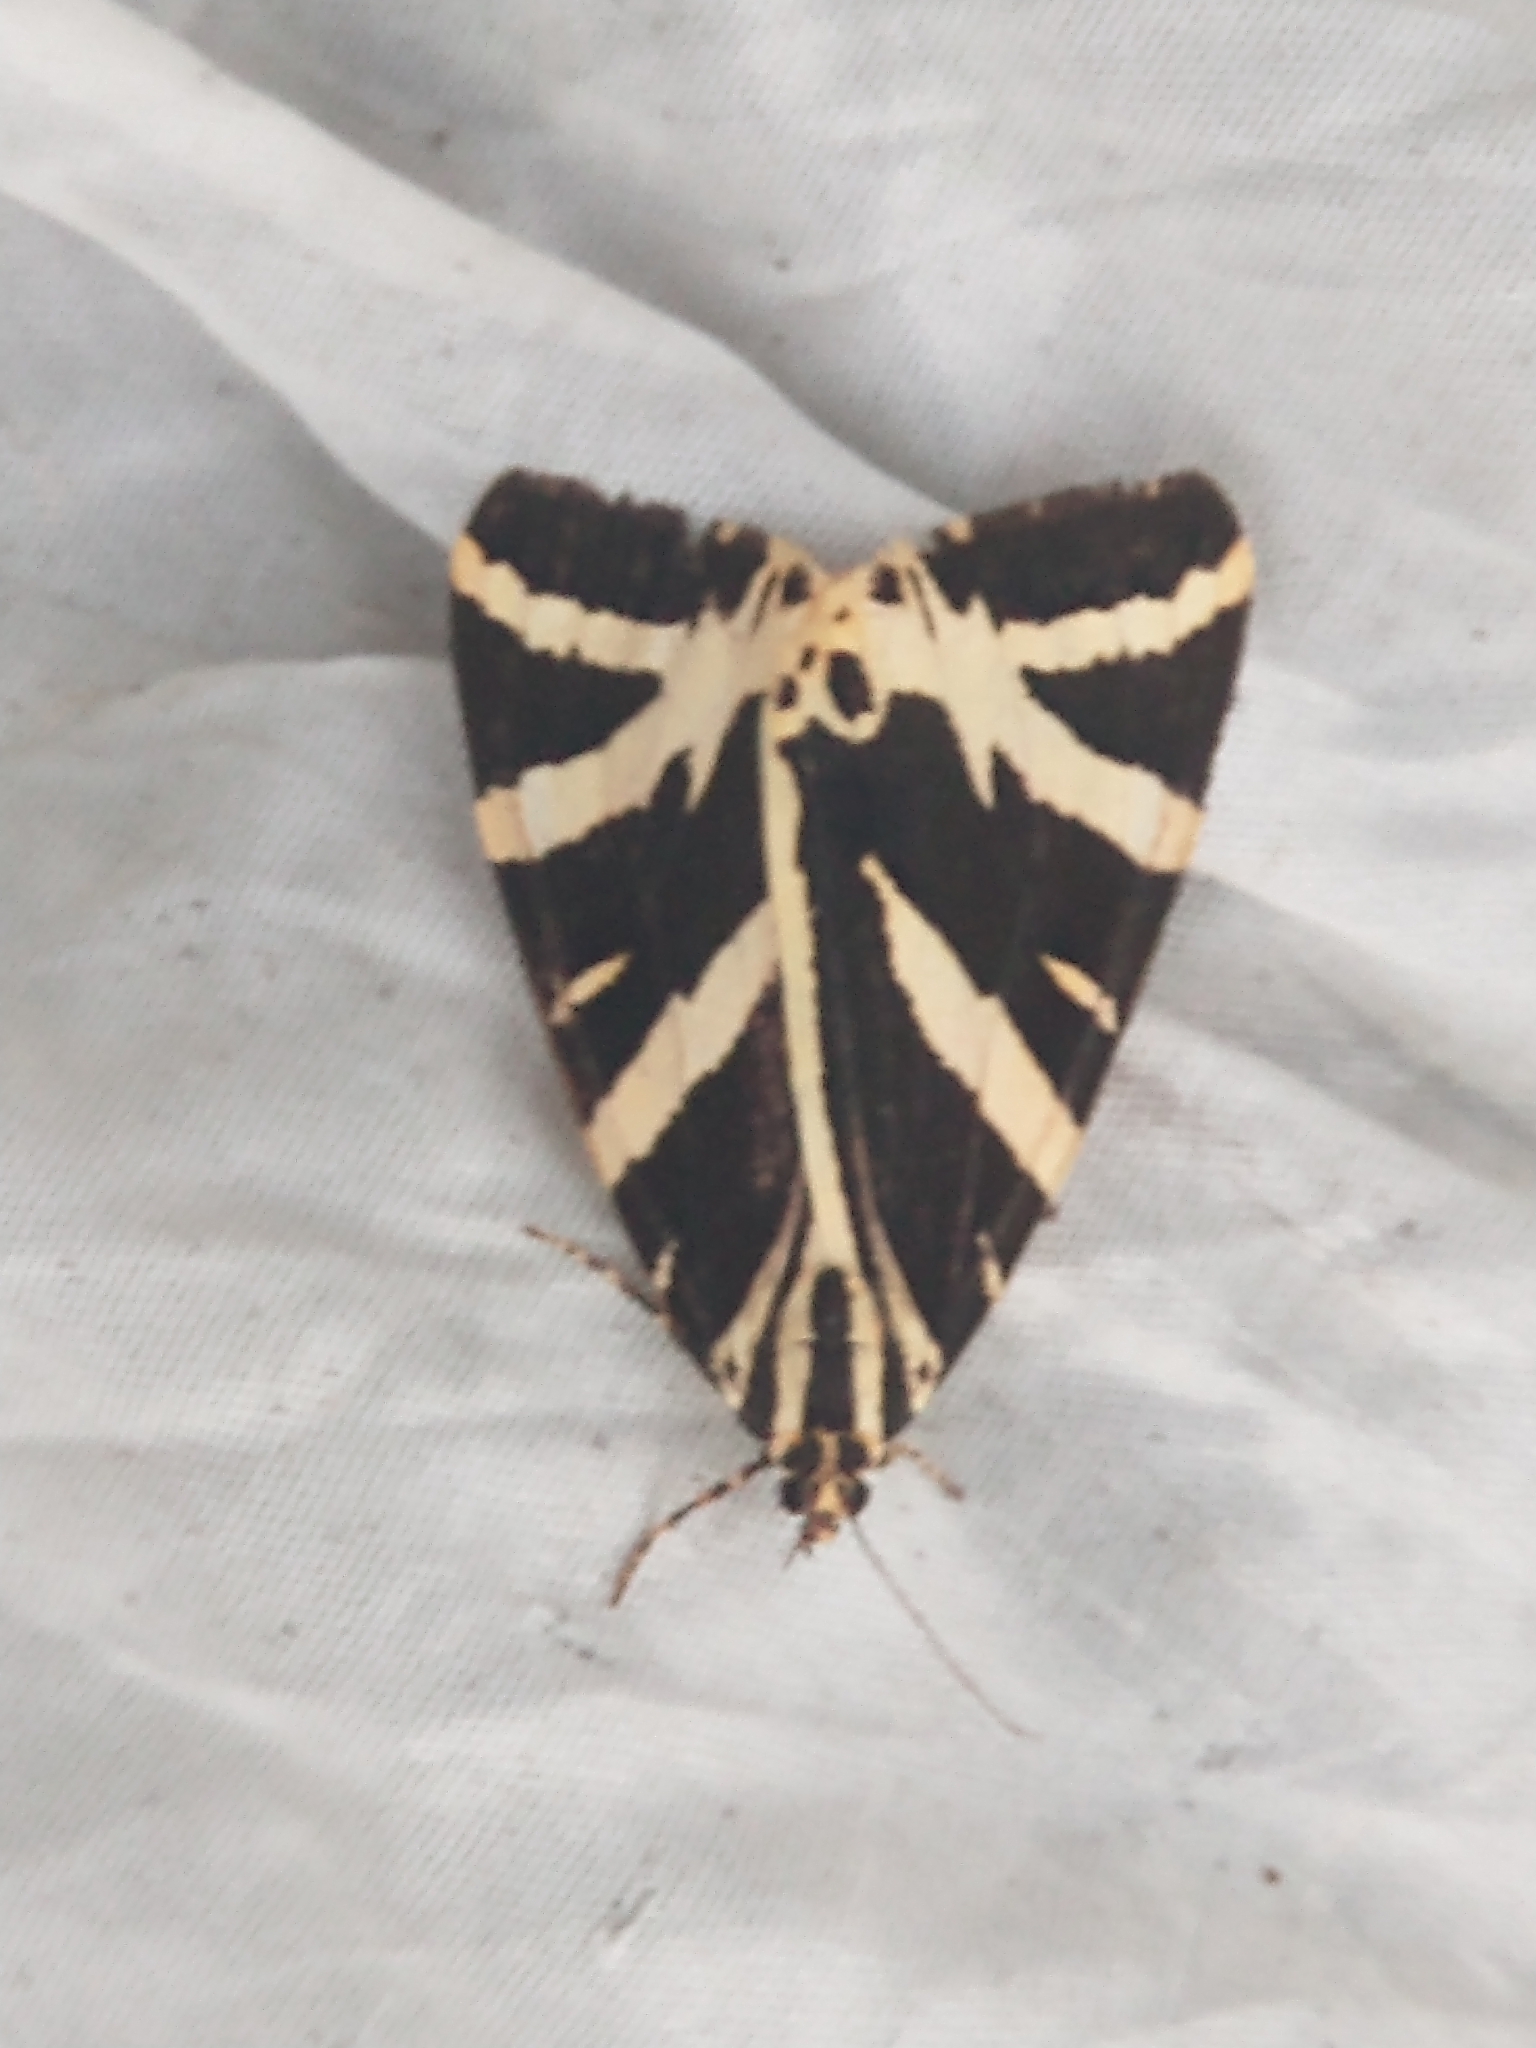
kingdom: Animalia
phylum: Arthropoda
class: Insecta
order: Lepidoptera
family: Erebidae
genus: Euplagia
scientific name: Euplagia quadripunctaria
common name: Jersey tiger
